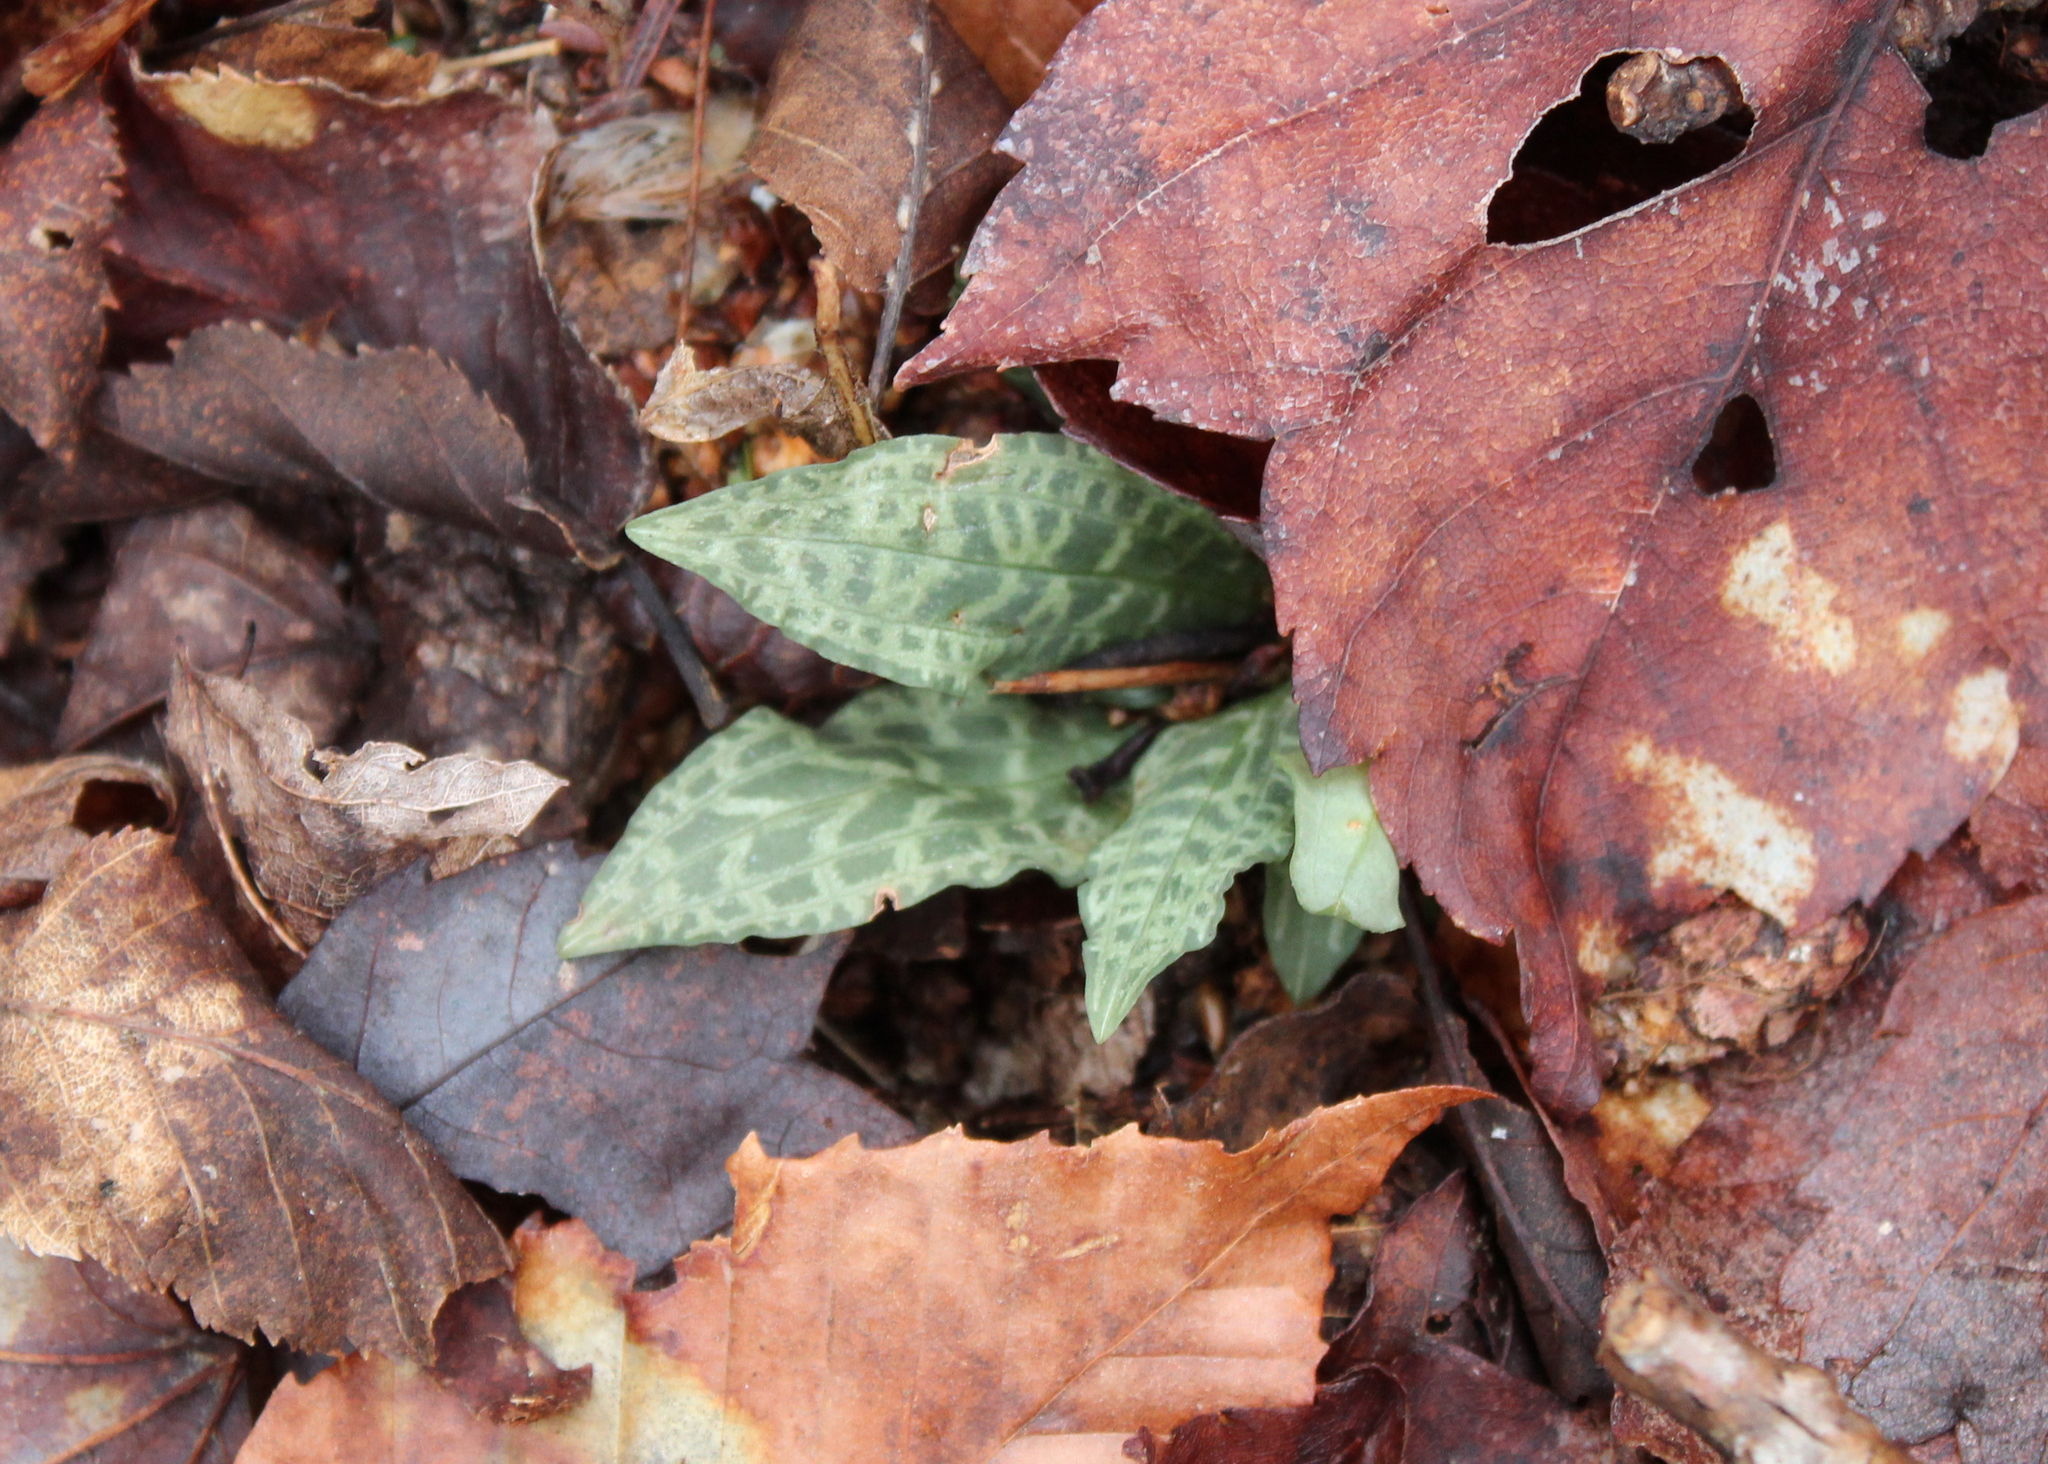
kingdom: Plantae
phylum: Tracheophyta
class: Liliopsida
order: Asparagales
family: Orchidaceae
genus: Goodyera
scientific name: Goodyera tesselata
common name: Checkered rattlesnake-plantain
